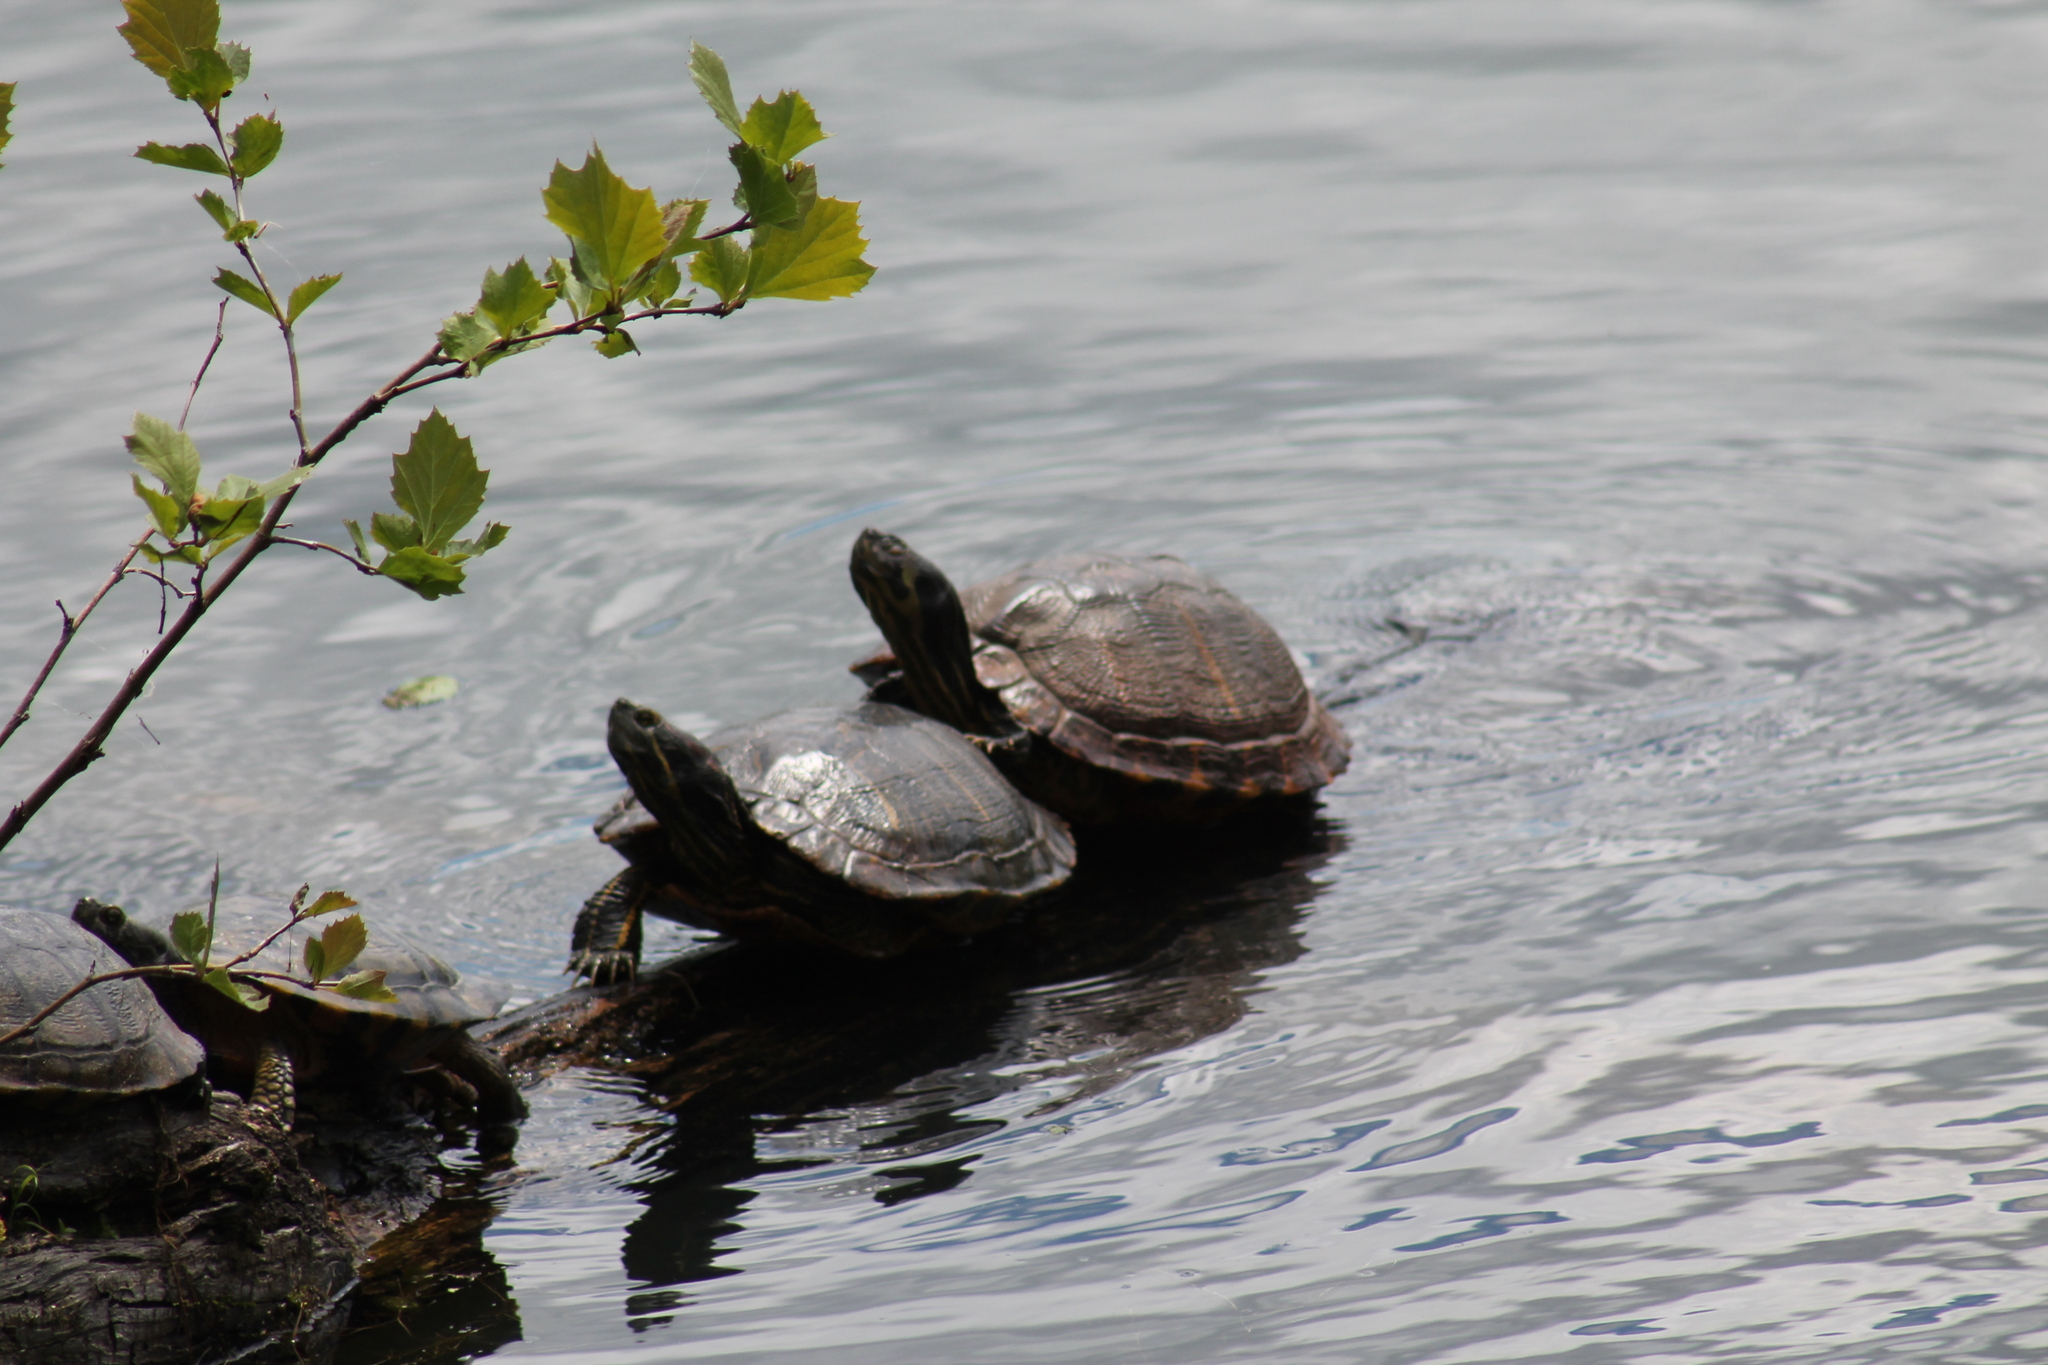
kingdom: Animalia
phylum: Chordata
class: Testudines
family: Emydidae
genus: Trachemys
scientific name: Trachemys scripta
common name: Slider
